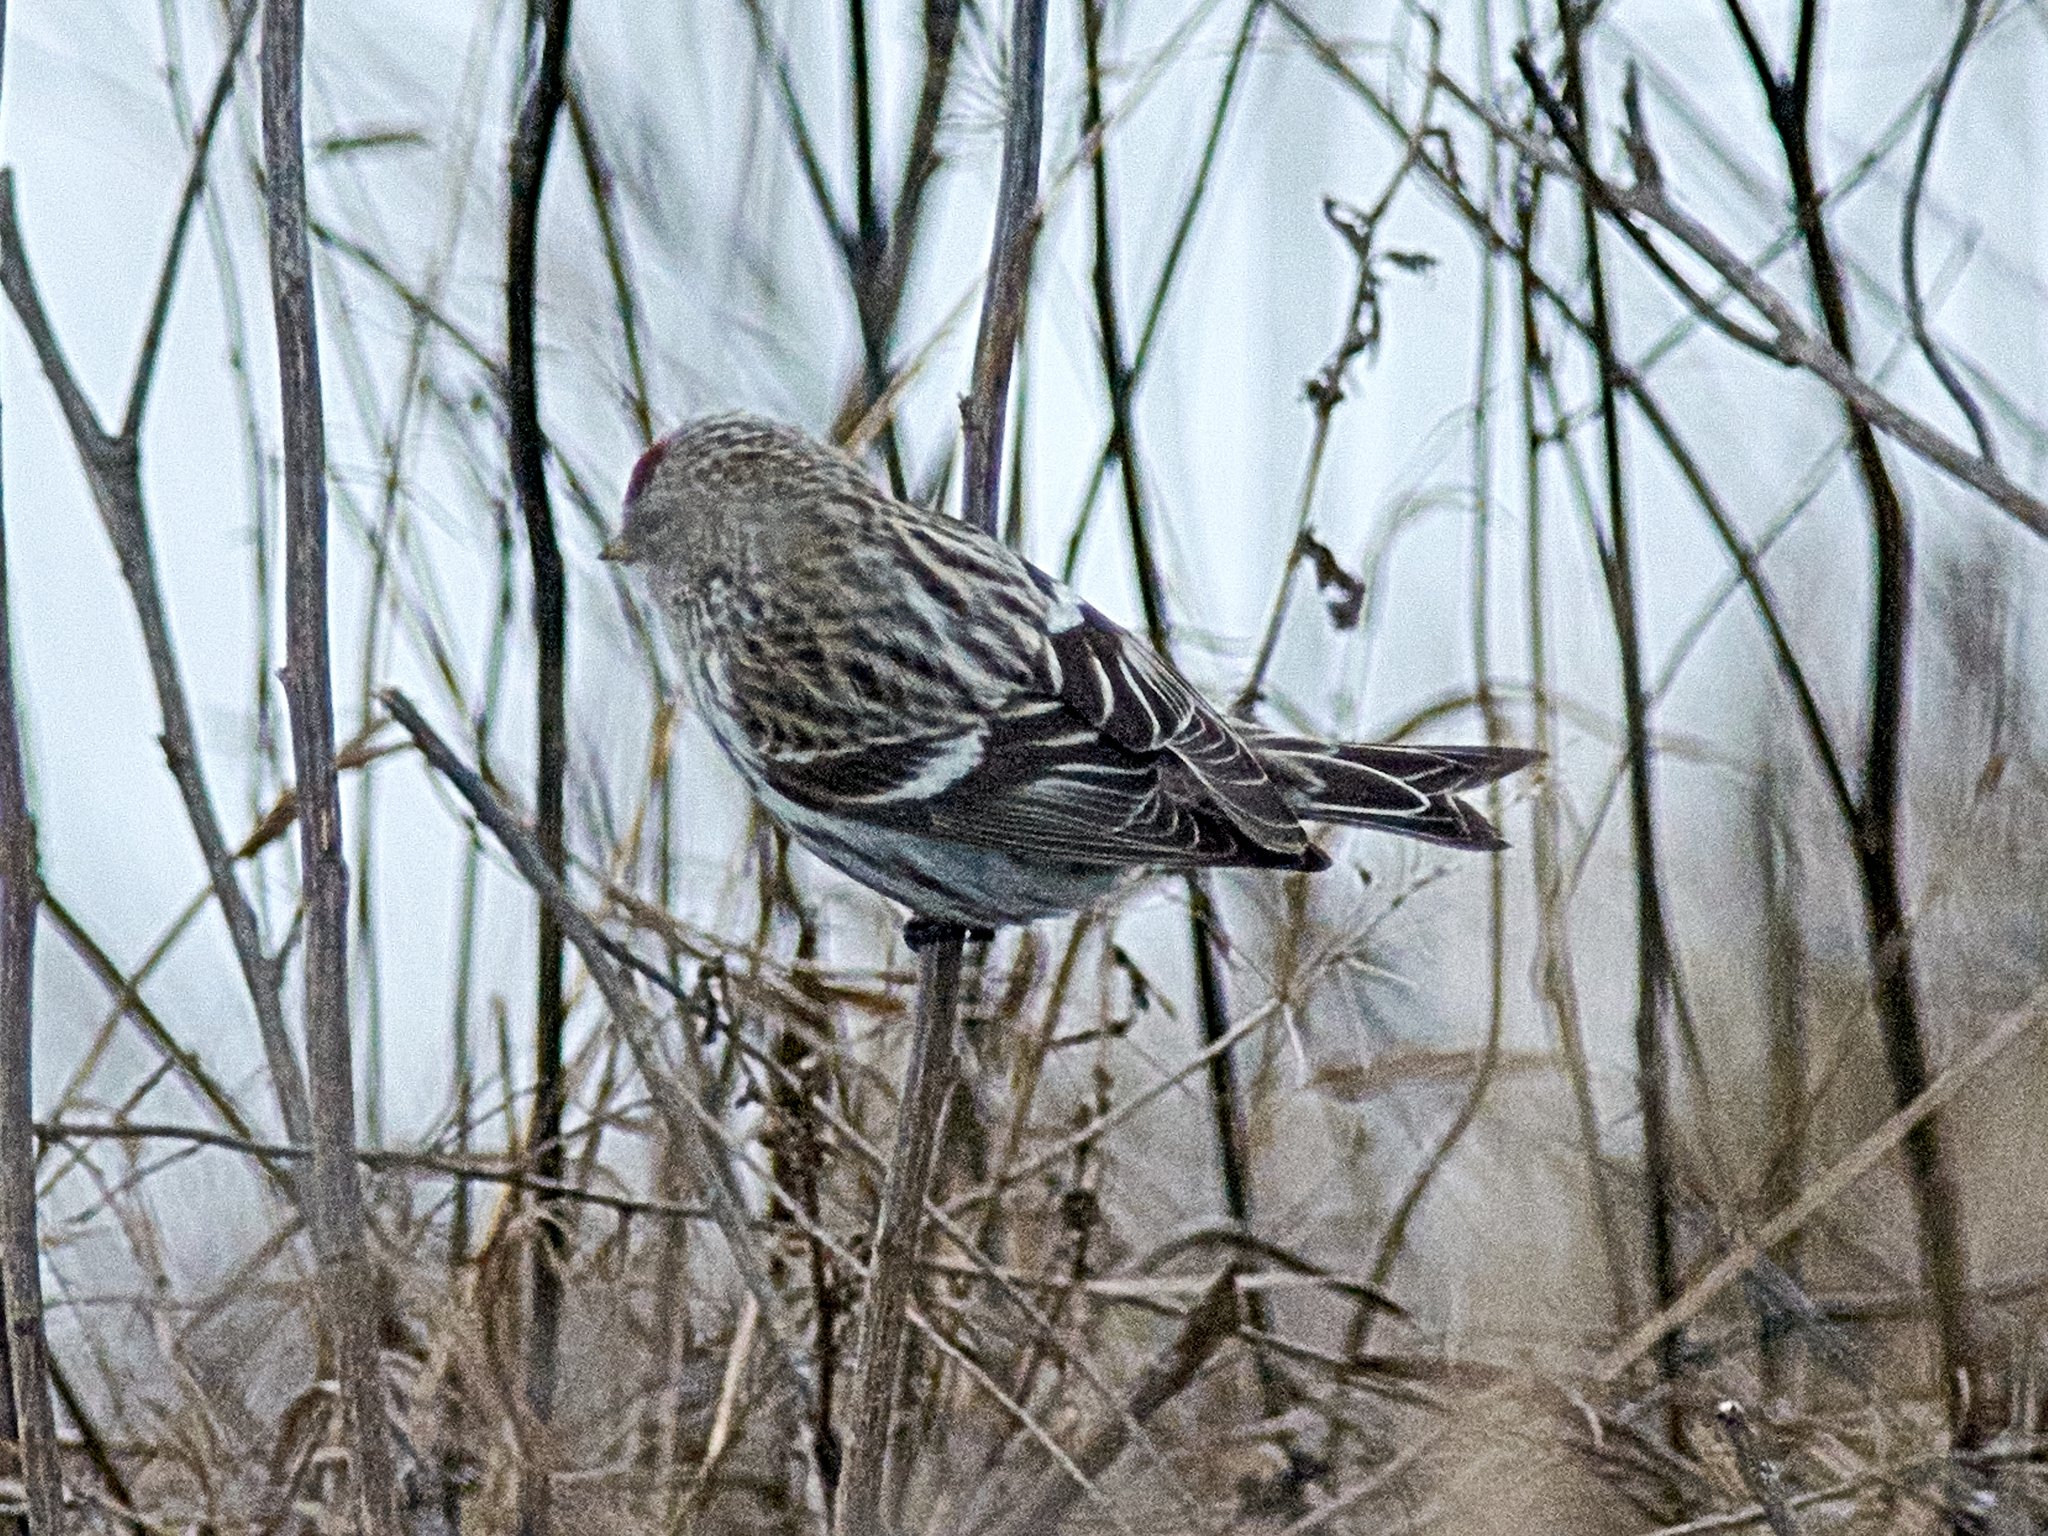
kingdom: Animalia
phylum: Chordata
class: Aves
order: Passeriformes
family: Fringillidae
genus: Acanthis
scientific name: Acanthis flammea
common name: Common redpoll
